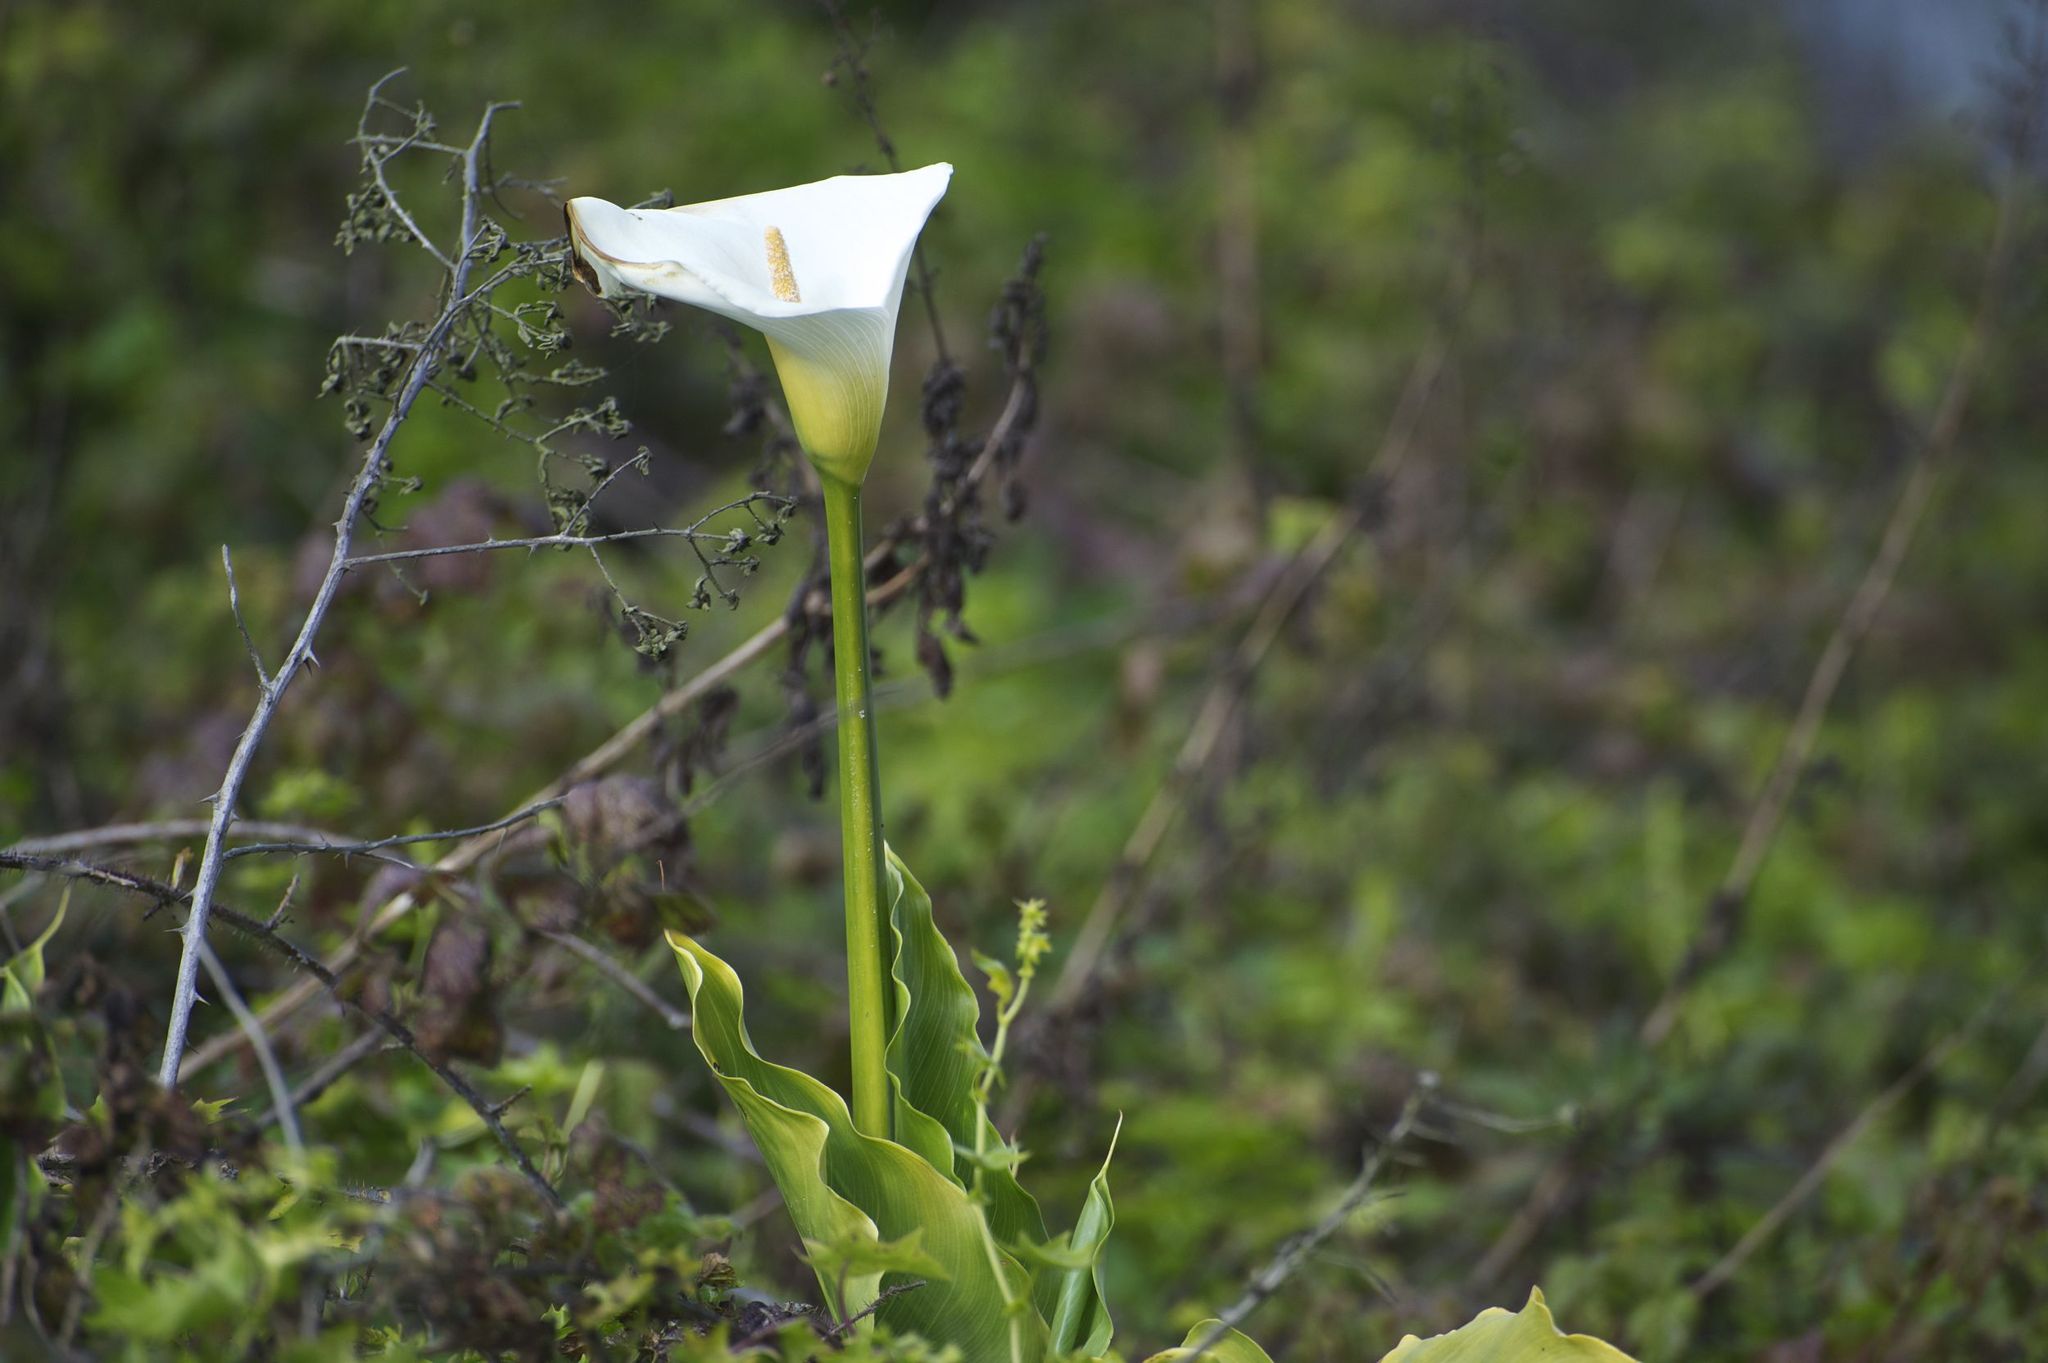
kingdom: Plantae
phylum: Tracheophyta
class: Liliopsida
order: Alismatales
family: Araceae
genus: Zantedeschia
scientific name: Zantedeschia aethiopica
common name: Altar-lily
